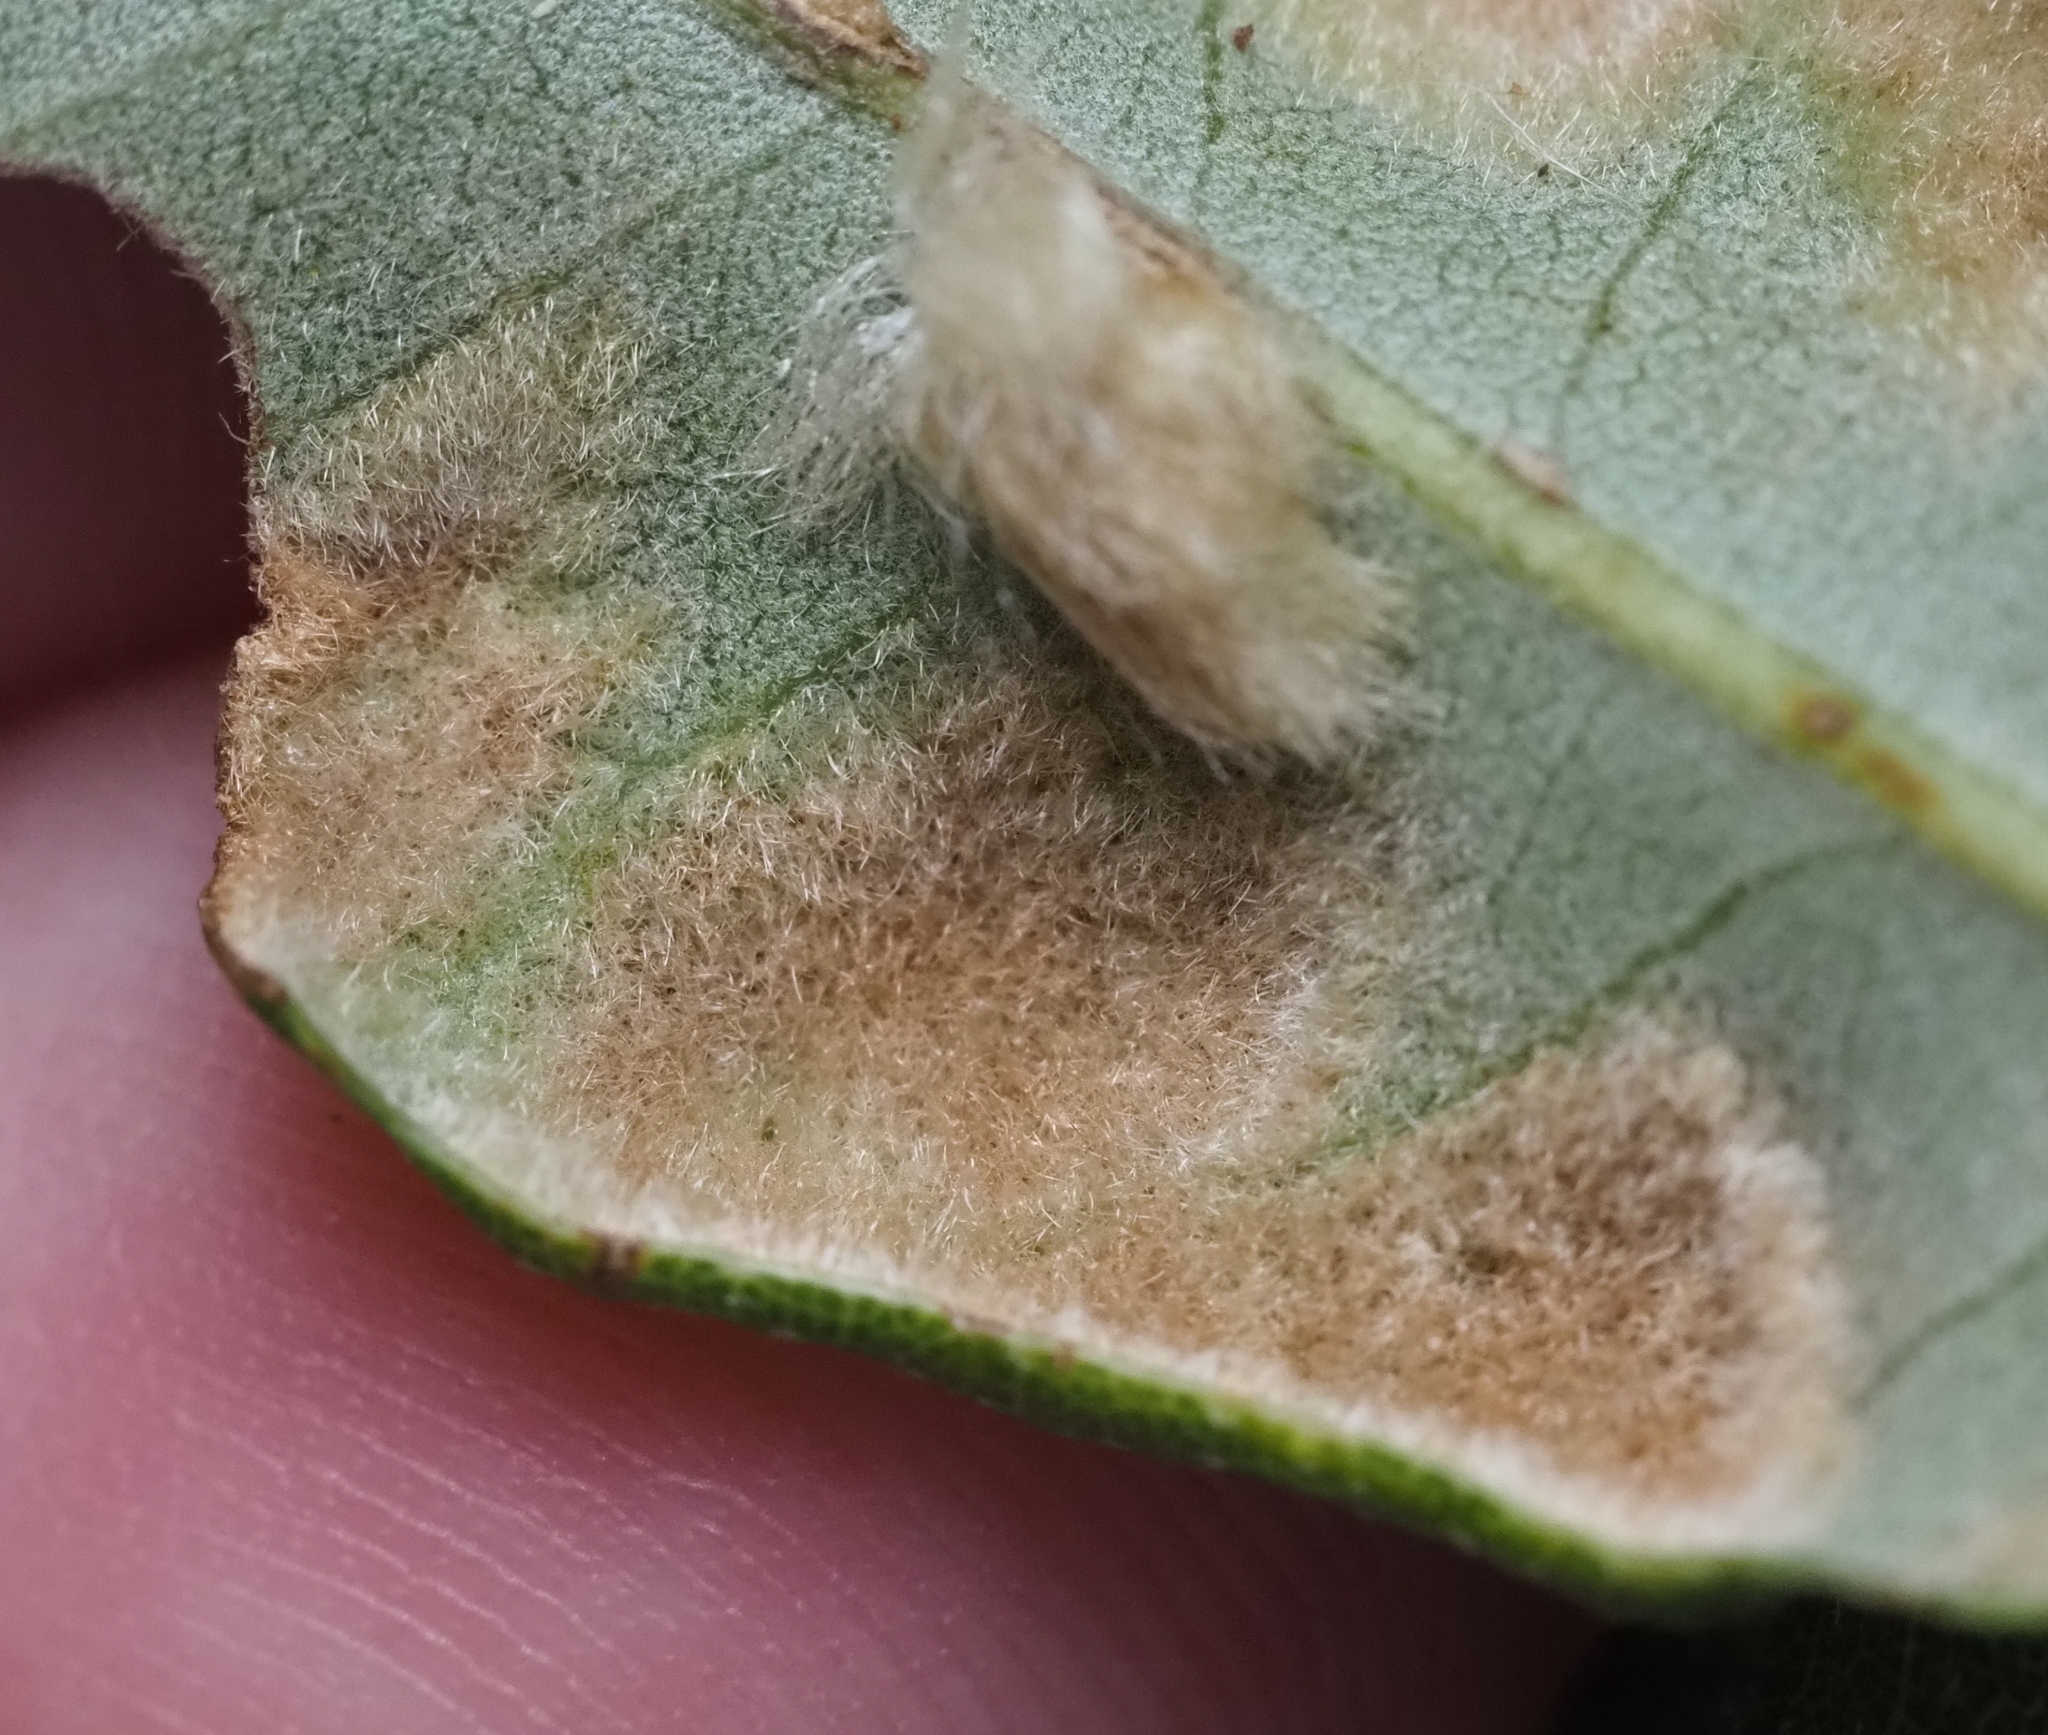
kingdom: Animalia
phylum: Arthropoda
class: Insecta
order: Hymenoptera
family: Cynipidae
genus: Andricus
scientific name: Andricus Druon quercuslanigerum
